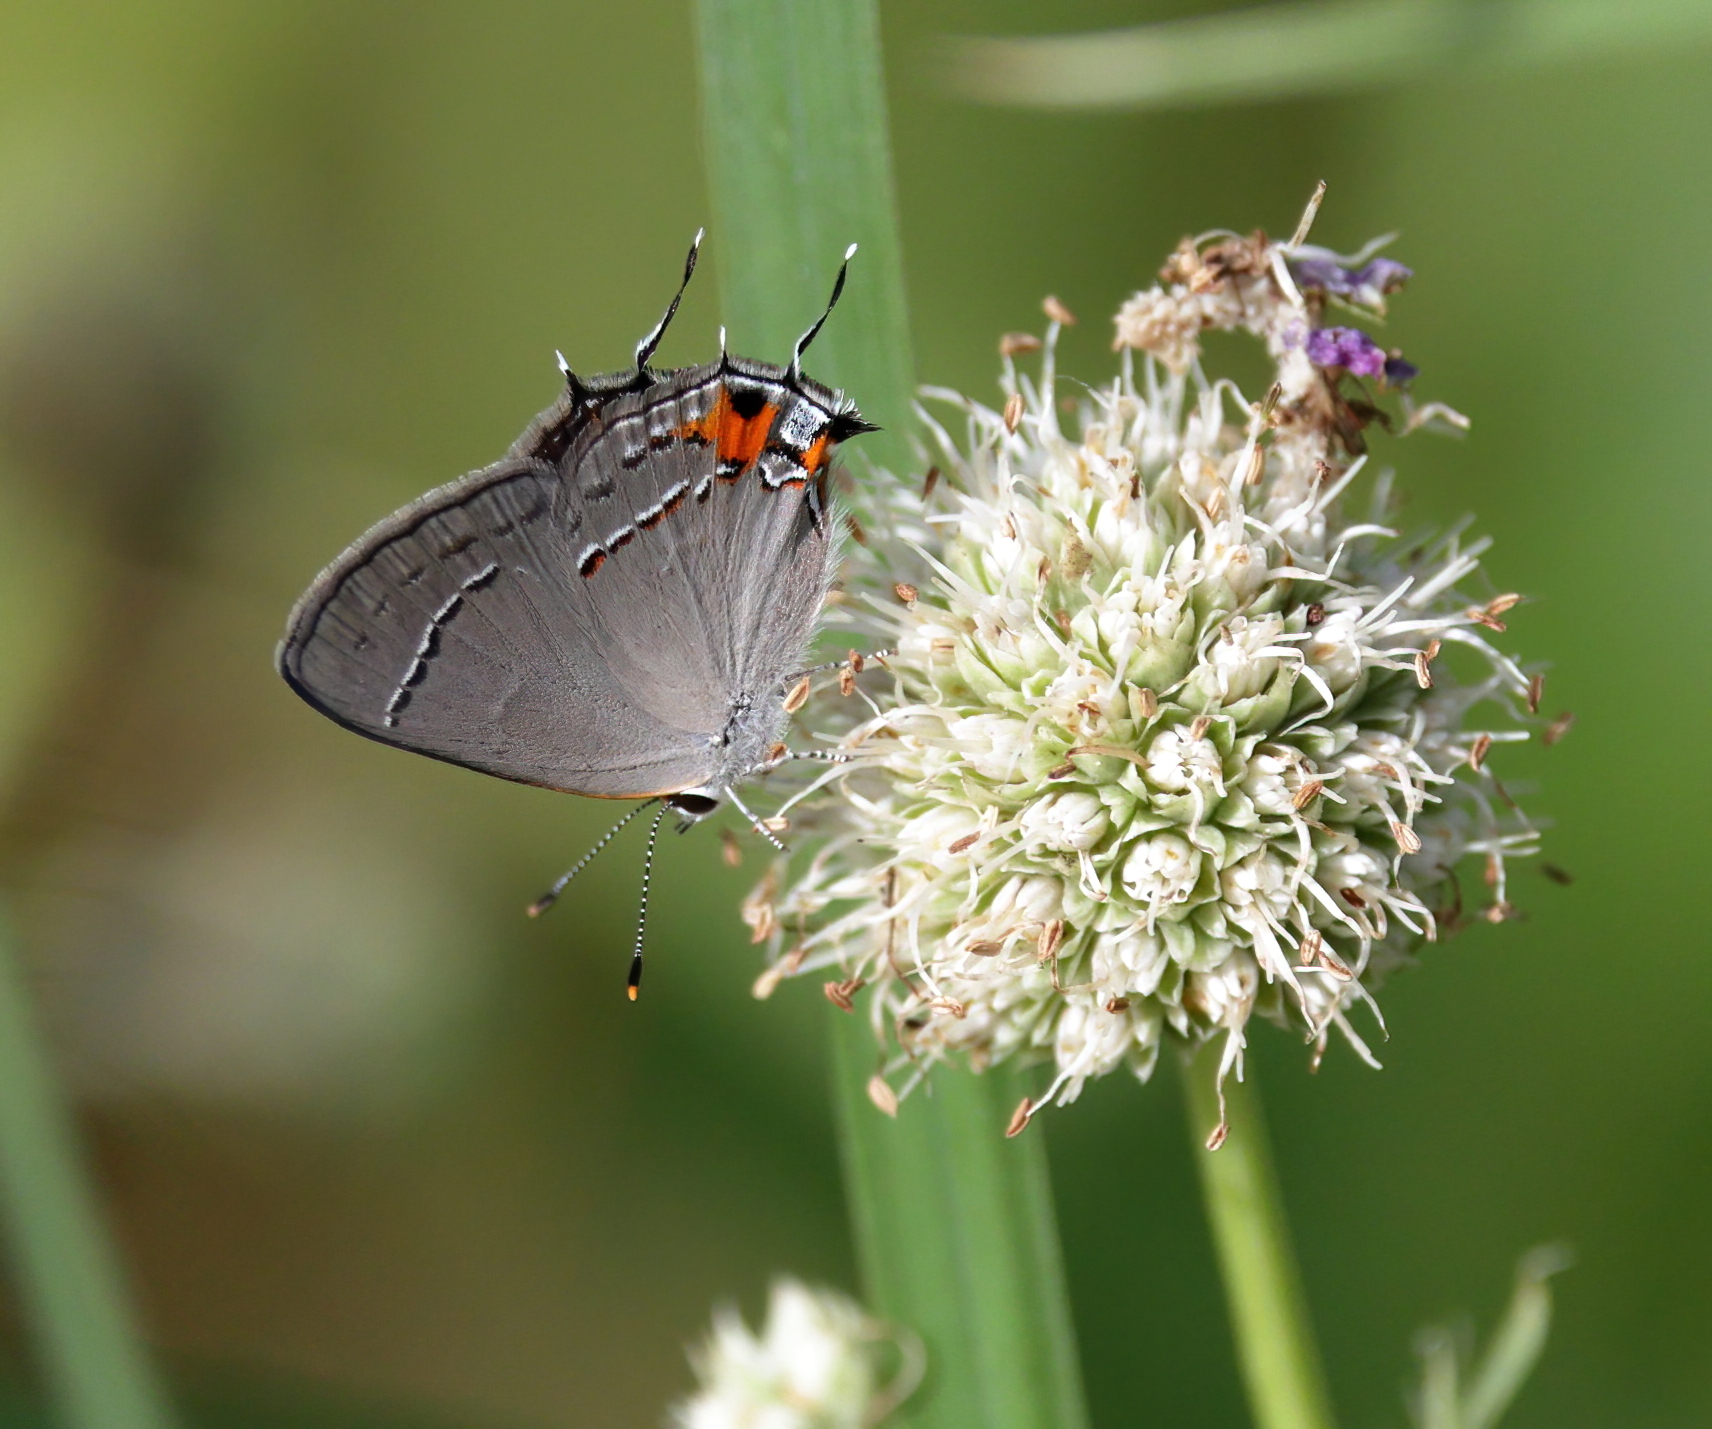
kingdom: Animalia
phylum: Arthropoda
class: Insecta
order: Lepidoptera
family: Lycaenidae
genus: Strymon
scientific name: Strymon melinus
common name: Gray hairstreak
